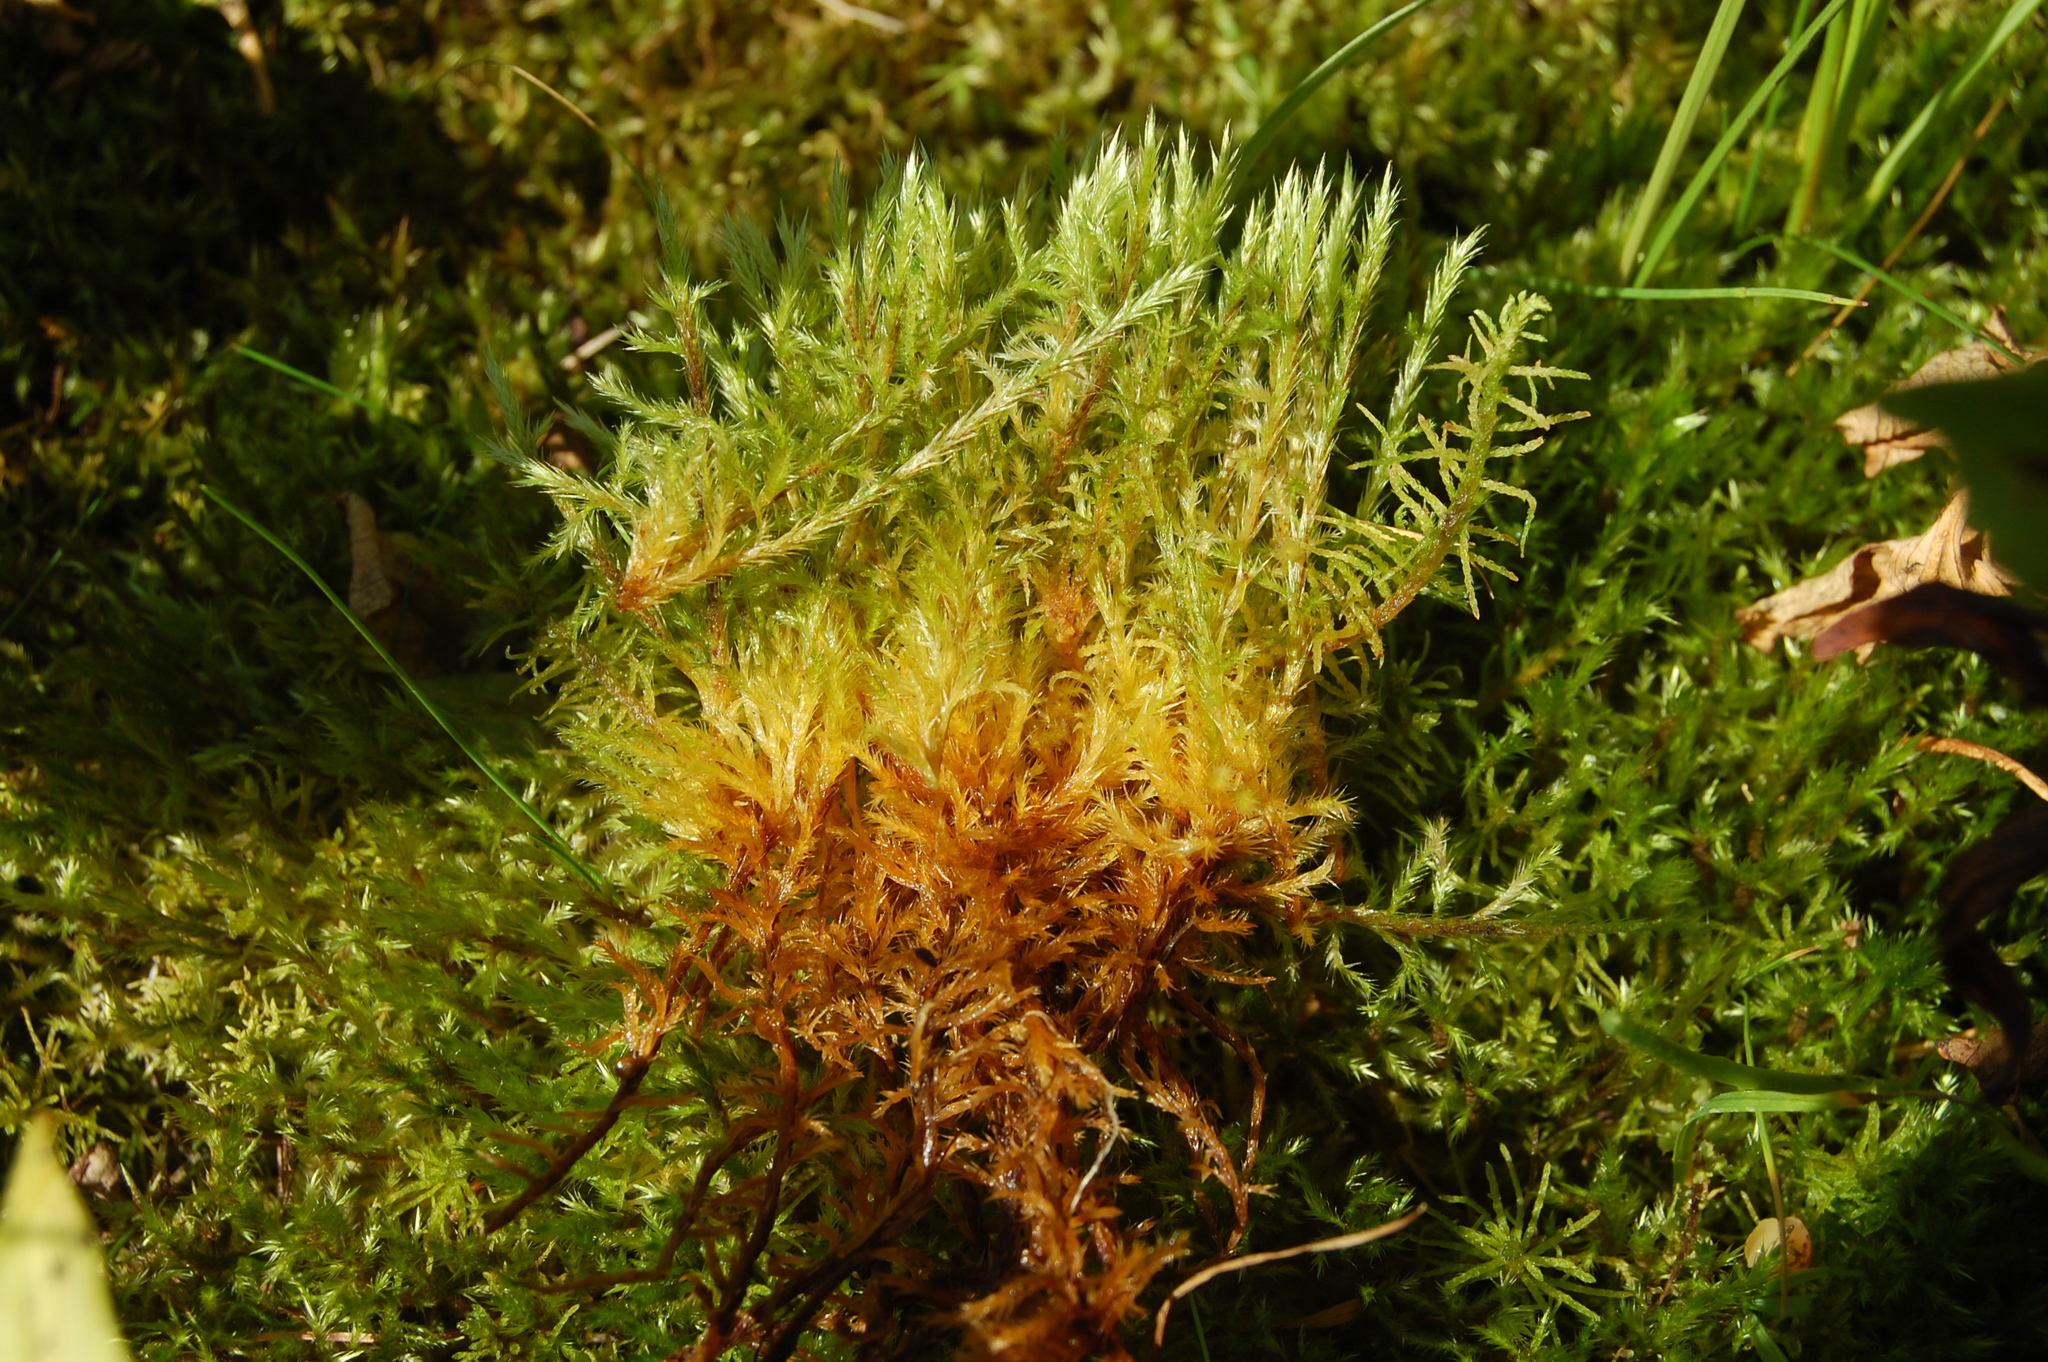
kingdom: Plantae
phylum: Bryophyta
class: Bryopsida
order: Hypnales
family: Amblystegiaceae
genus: Tomentypnum
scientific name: Tomentypnum nitens
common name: Golden fuzzy fen moss
